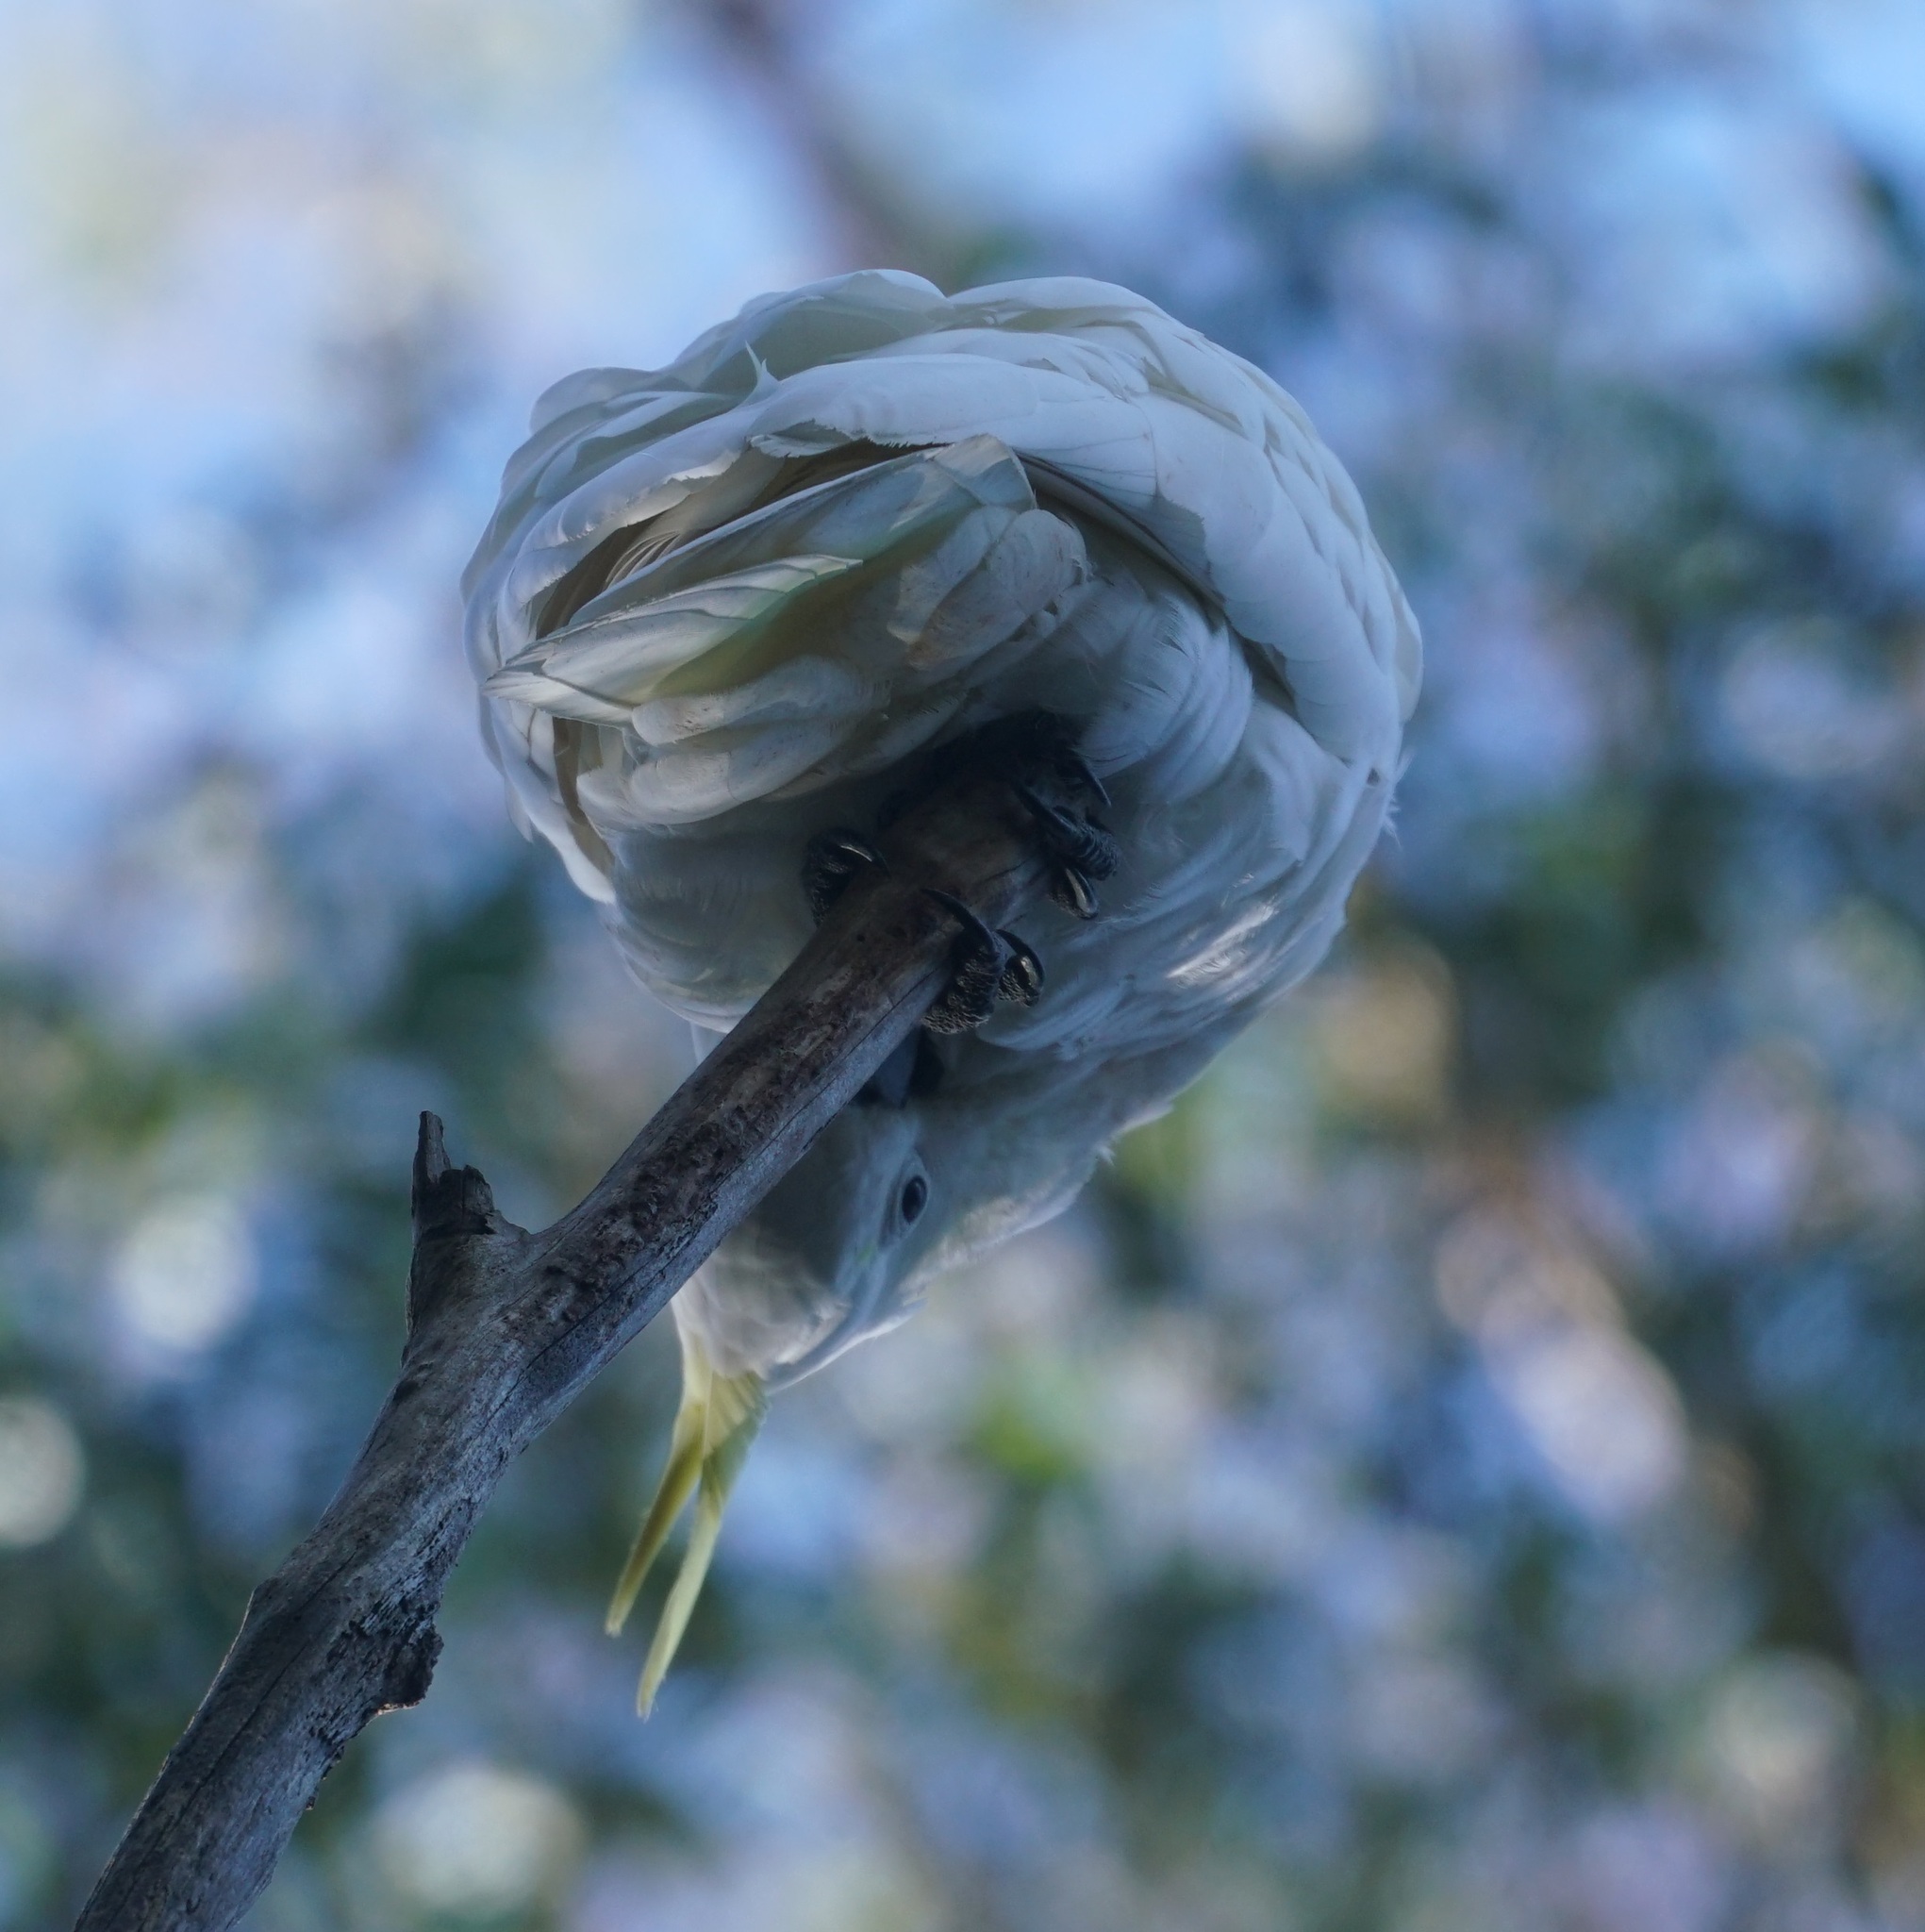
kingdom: Animalia
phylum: Chordata
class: Aves
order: Psittaciformes
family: Psittacidae
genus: Cacatua
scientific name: Cacatua galerita
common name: Sulphur-crested cockatoo
